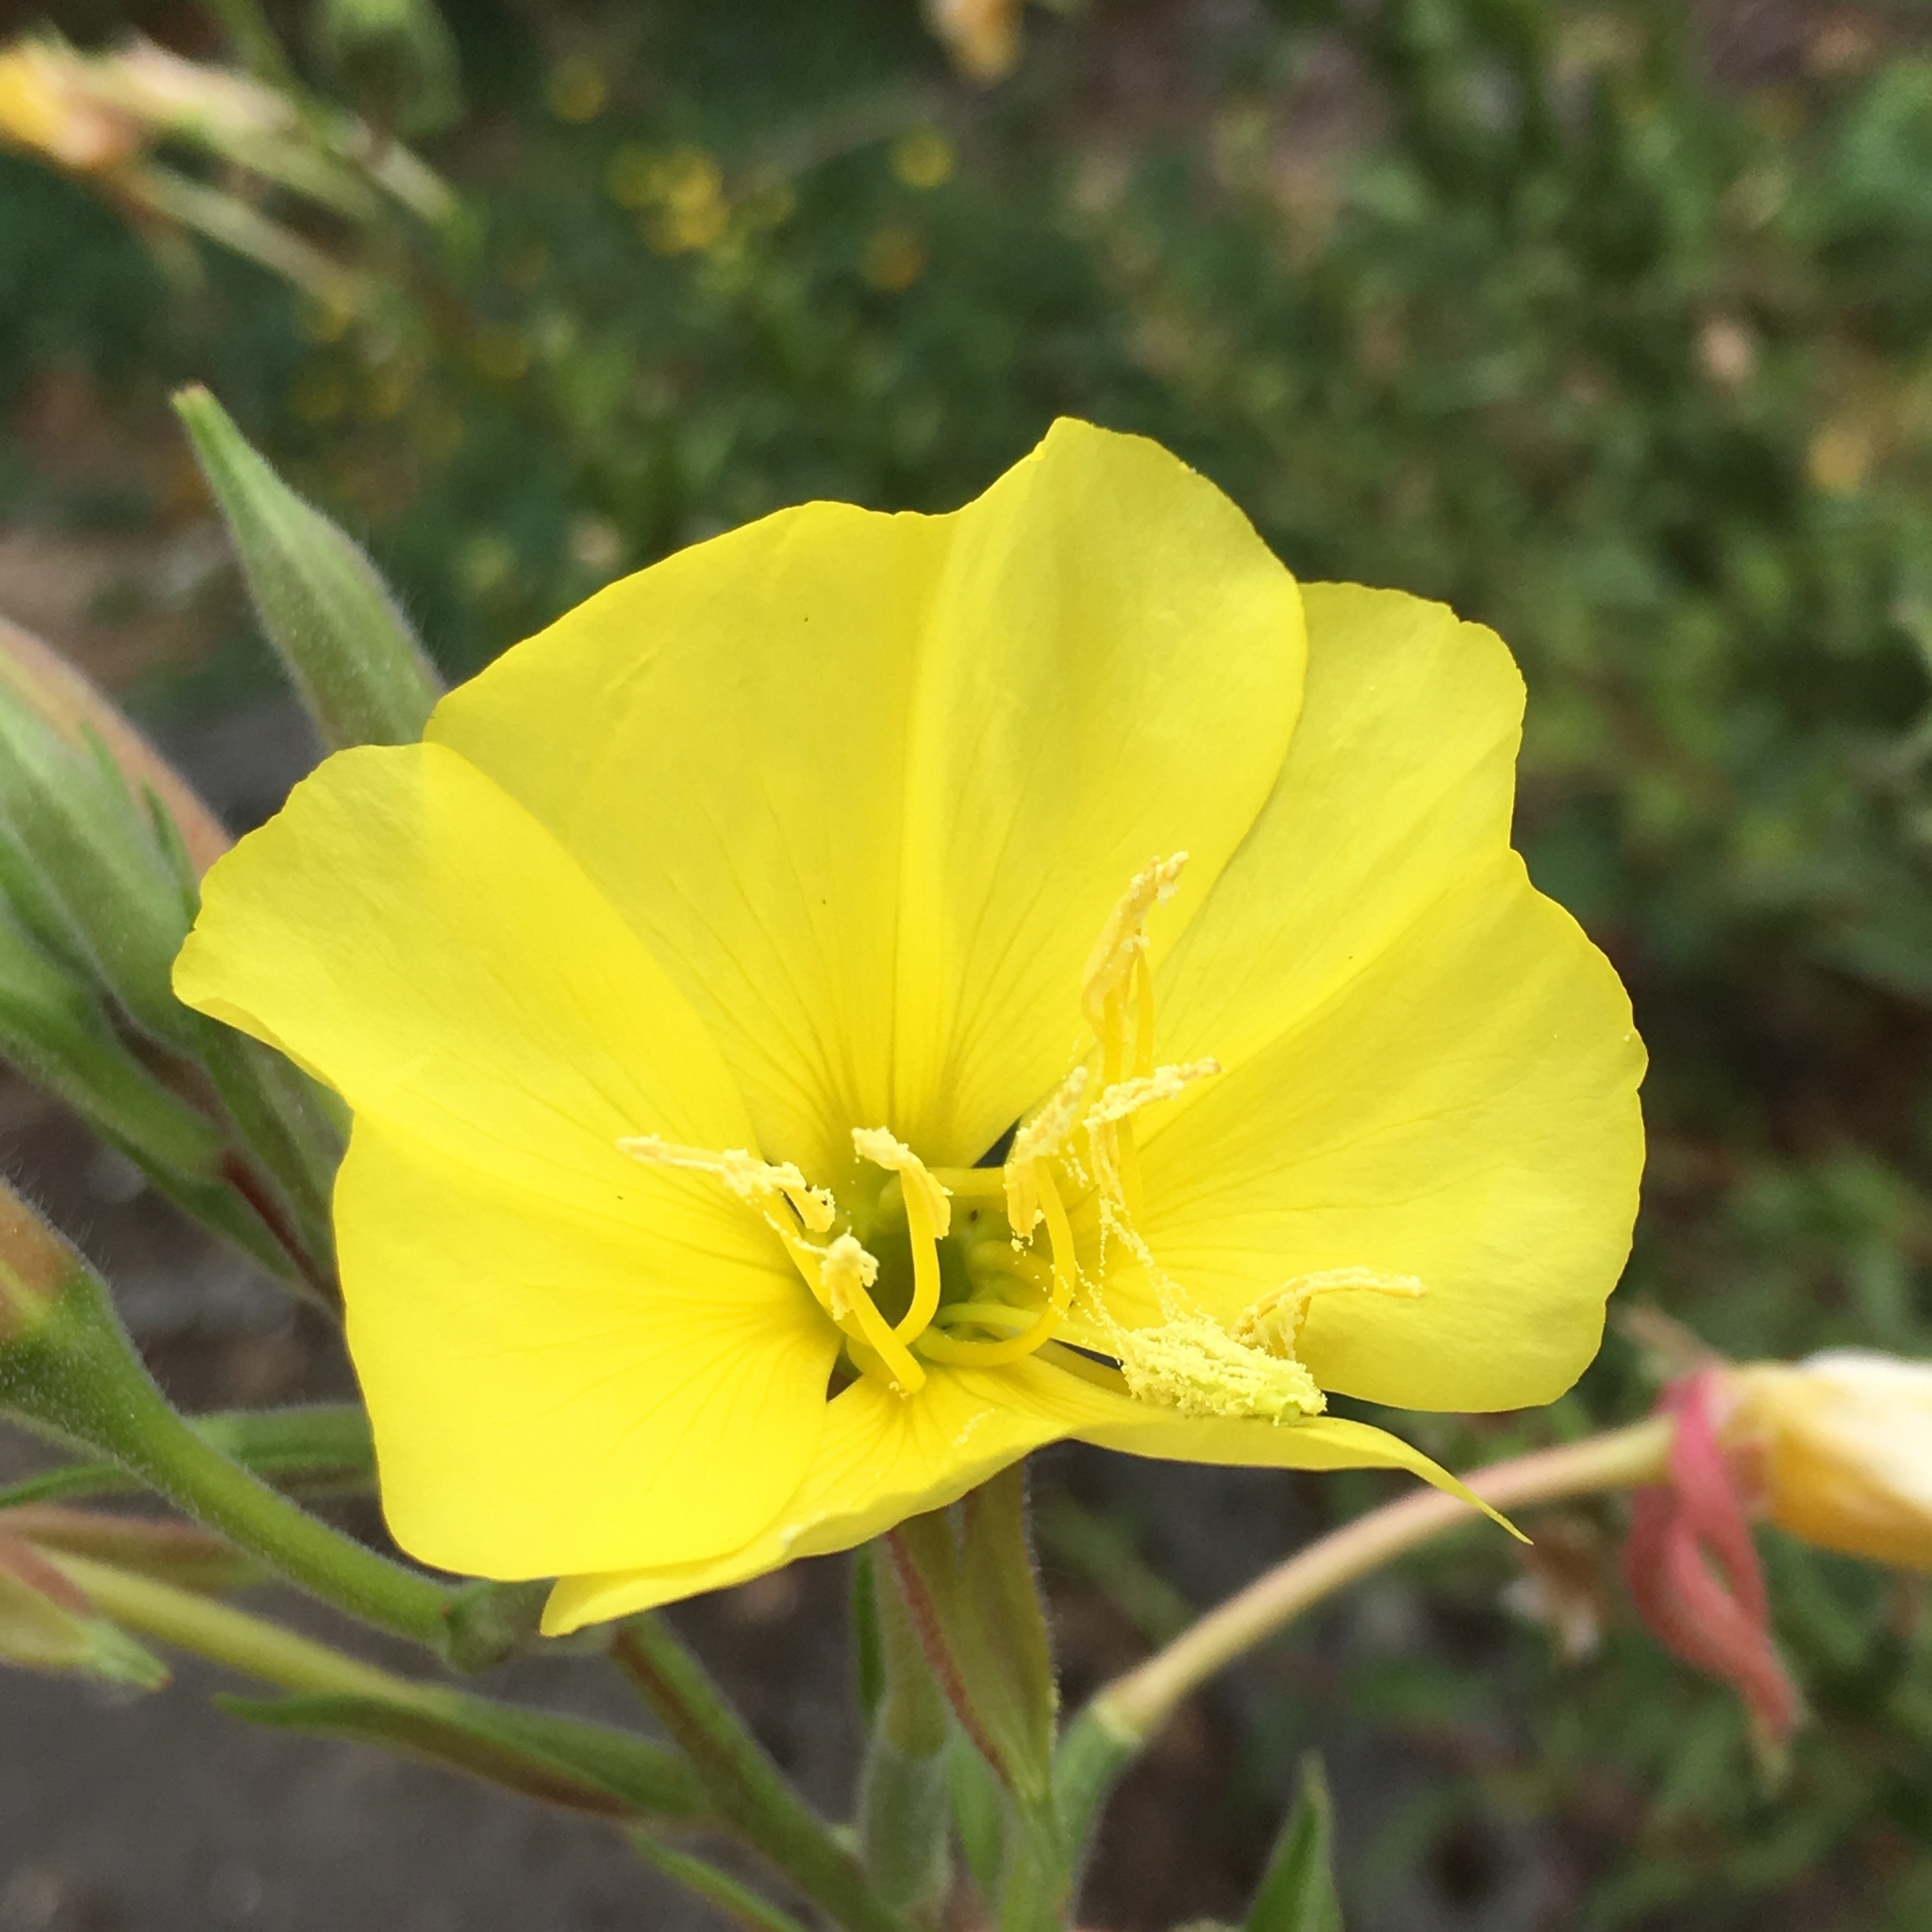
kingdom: Plantae
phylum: Tracheophyta
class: Magnoliopsida
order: Myrtales
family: Onagraceae
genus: Oenothera
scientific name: Oenothera biennis
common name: Common evening-primrose
